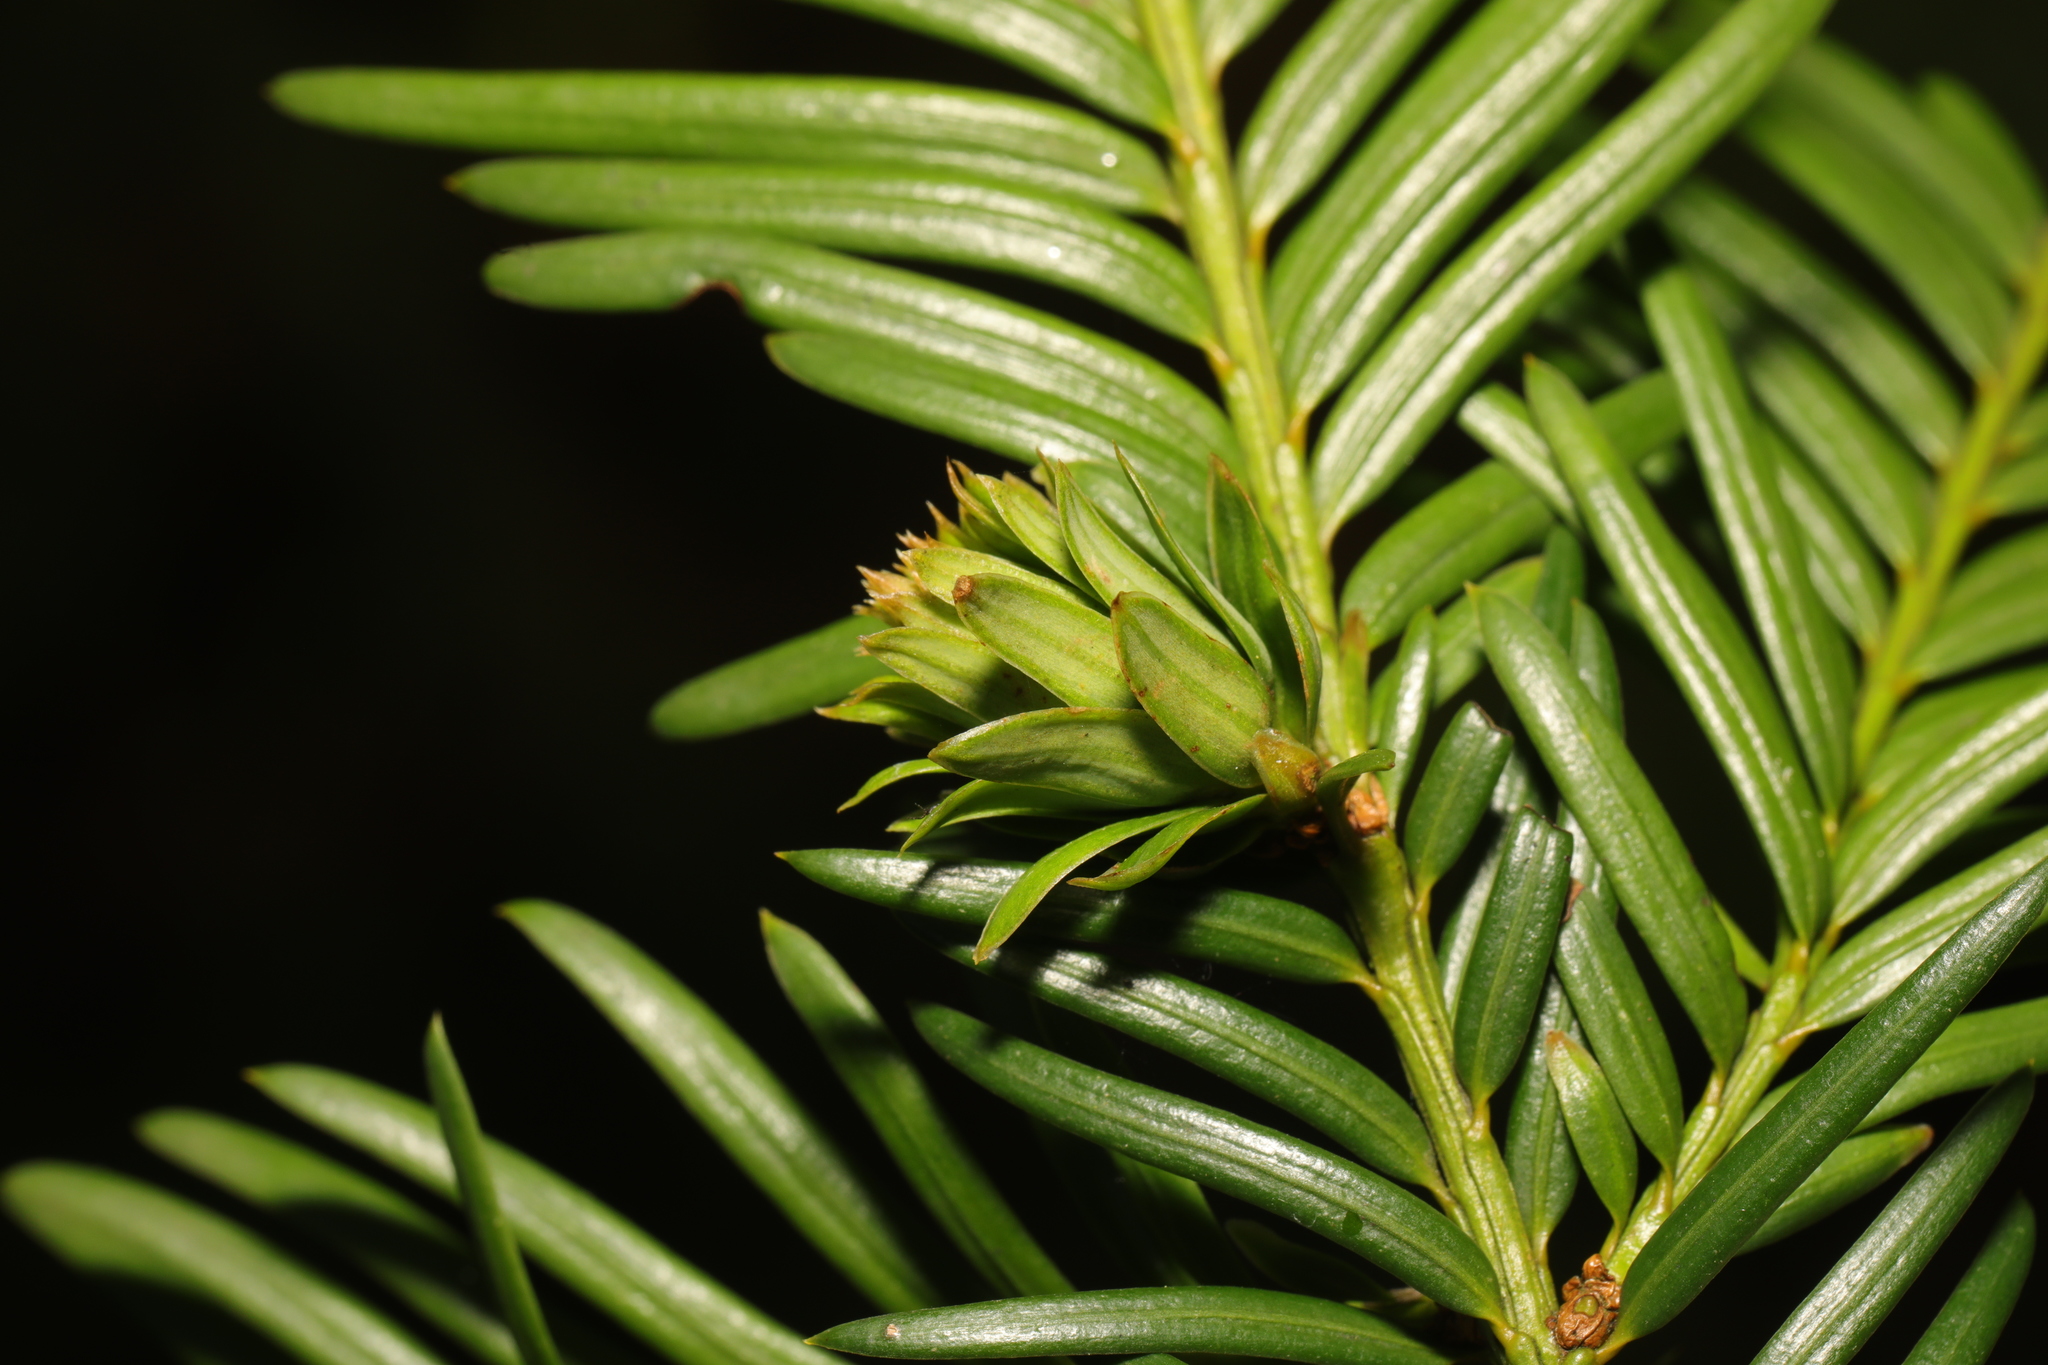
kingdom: Animalia
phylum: Arthropoda
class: Insecta
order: Diptera
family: Cecidomyiidae
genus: Taxomyia
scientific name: Taxomyia taxi
